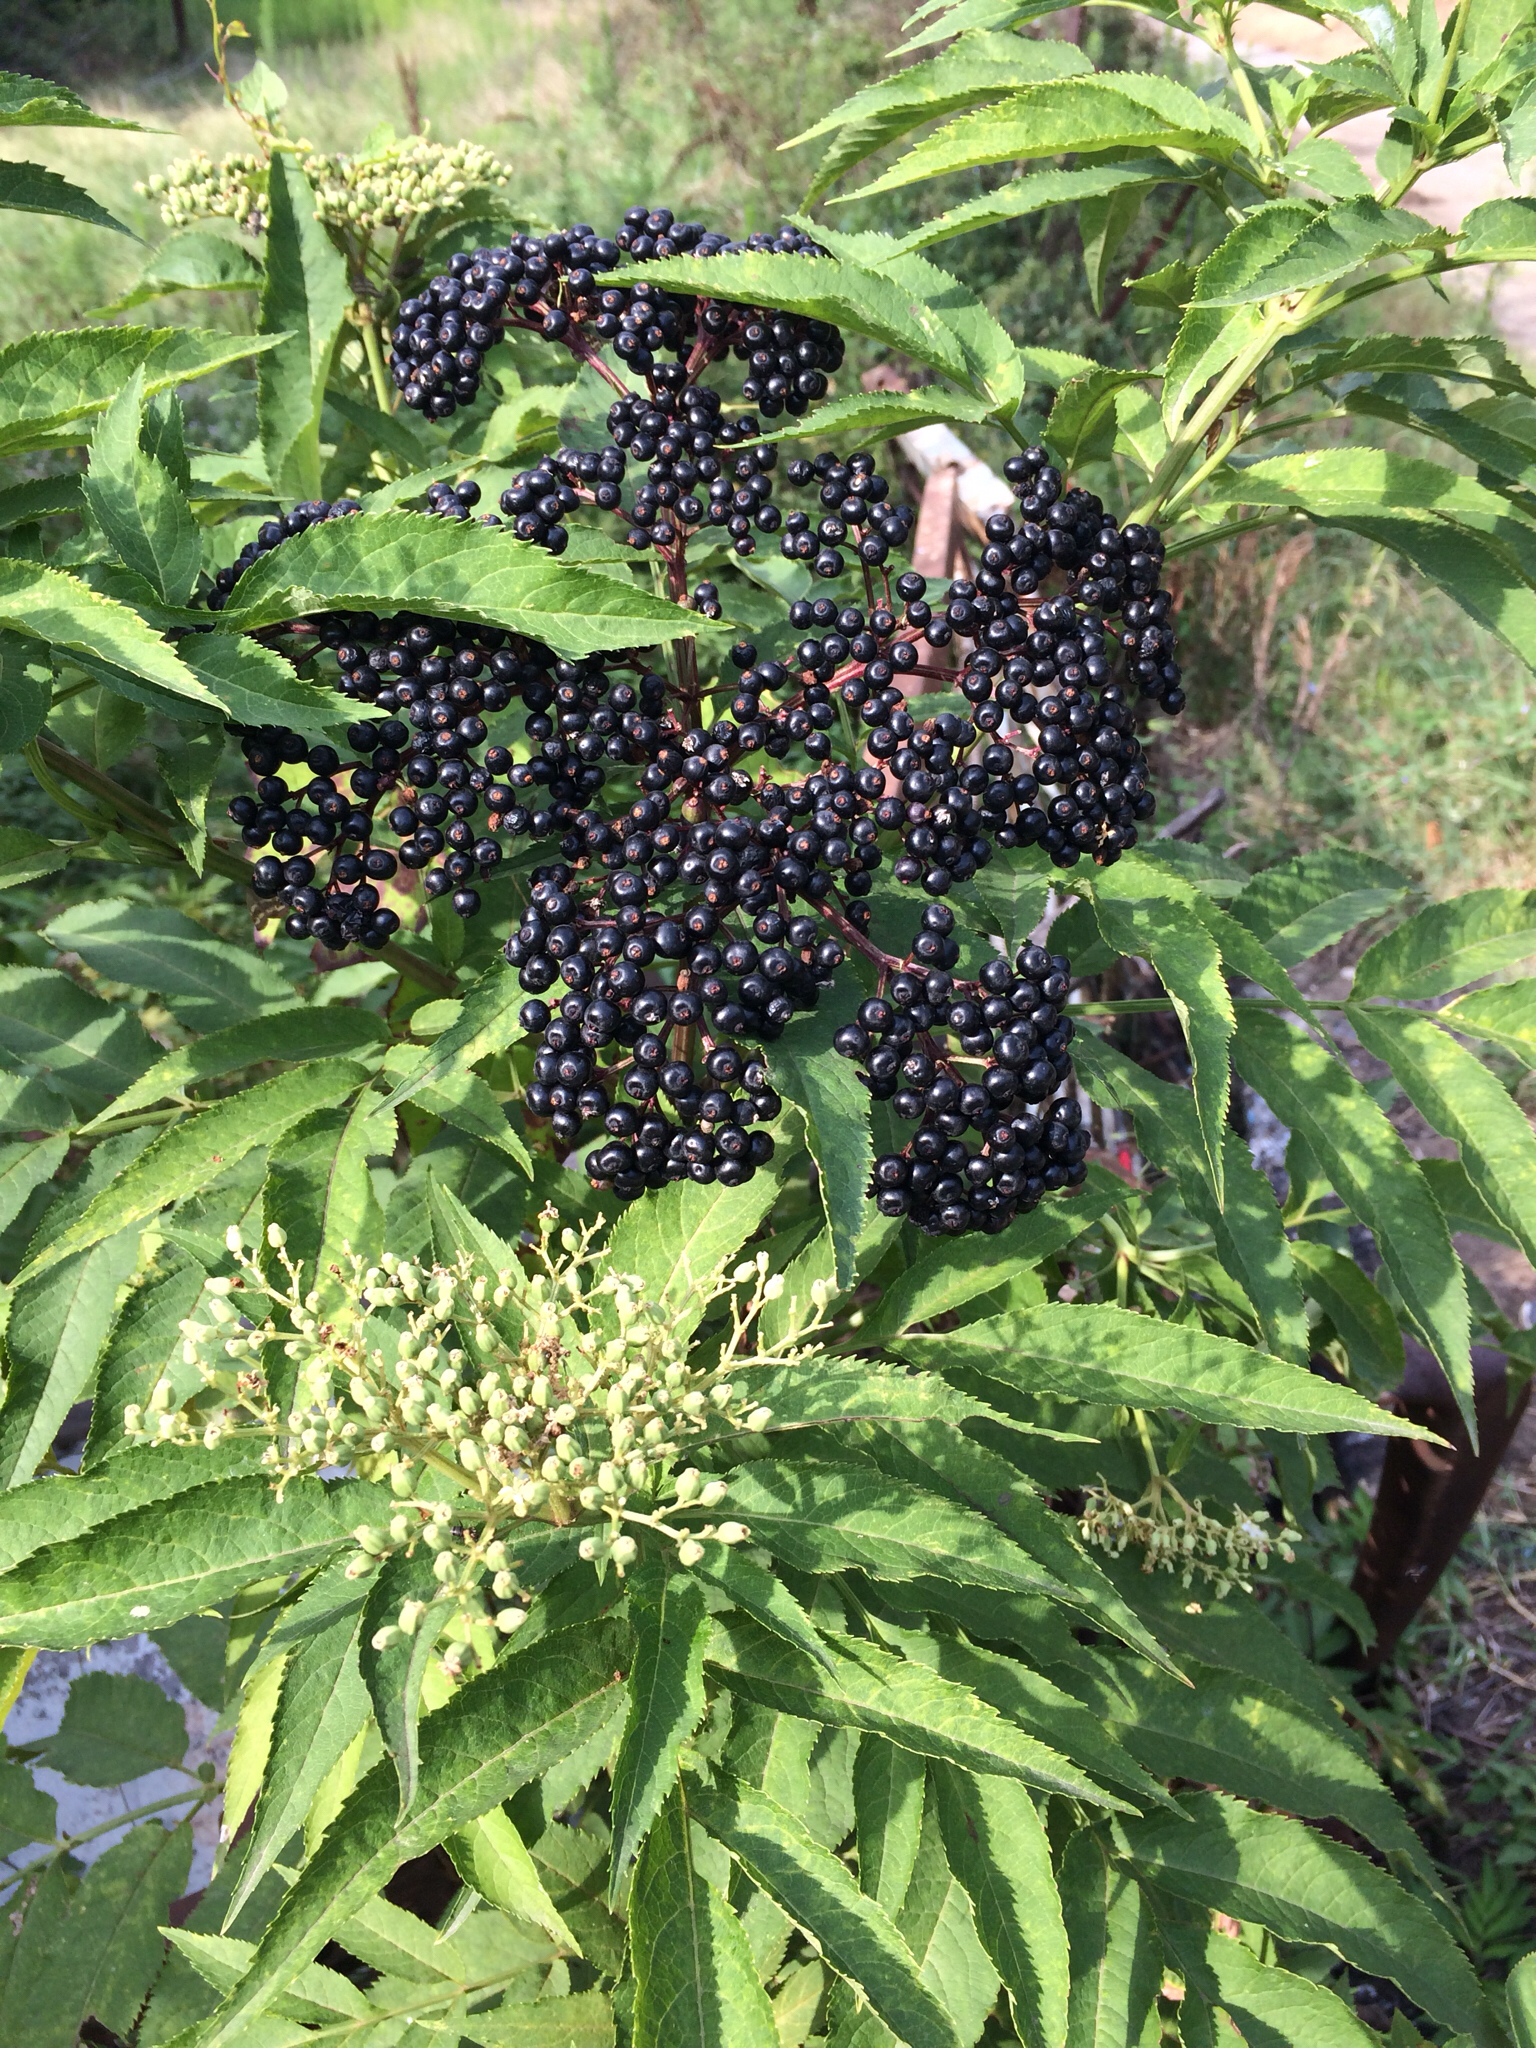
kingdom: Plantae
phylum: Tracheophyta
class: Magnoliopsida
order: Dipsacales
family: Viburnaceae
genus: Sambucus
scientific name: Sambucus ebulus
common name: Dwarf elder
